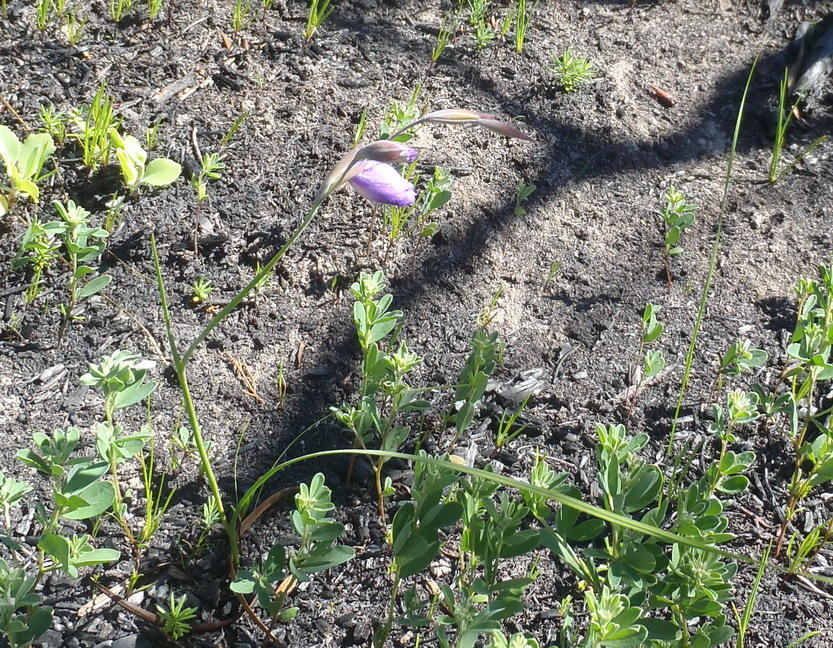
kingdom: Plantae
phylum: Tracheophyta
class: Liliopsida
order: Asparagales
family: Iridaceae
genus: Gladiolus
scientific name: Gladiolus rogersii
